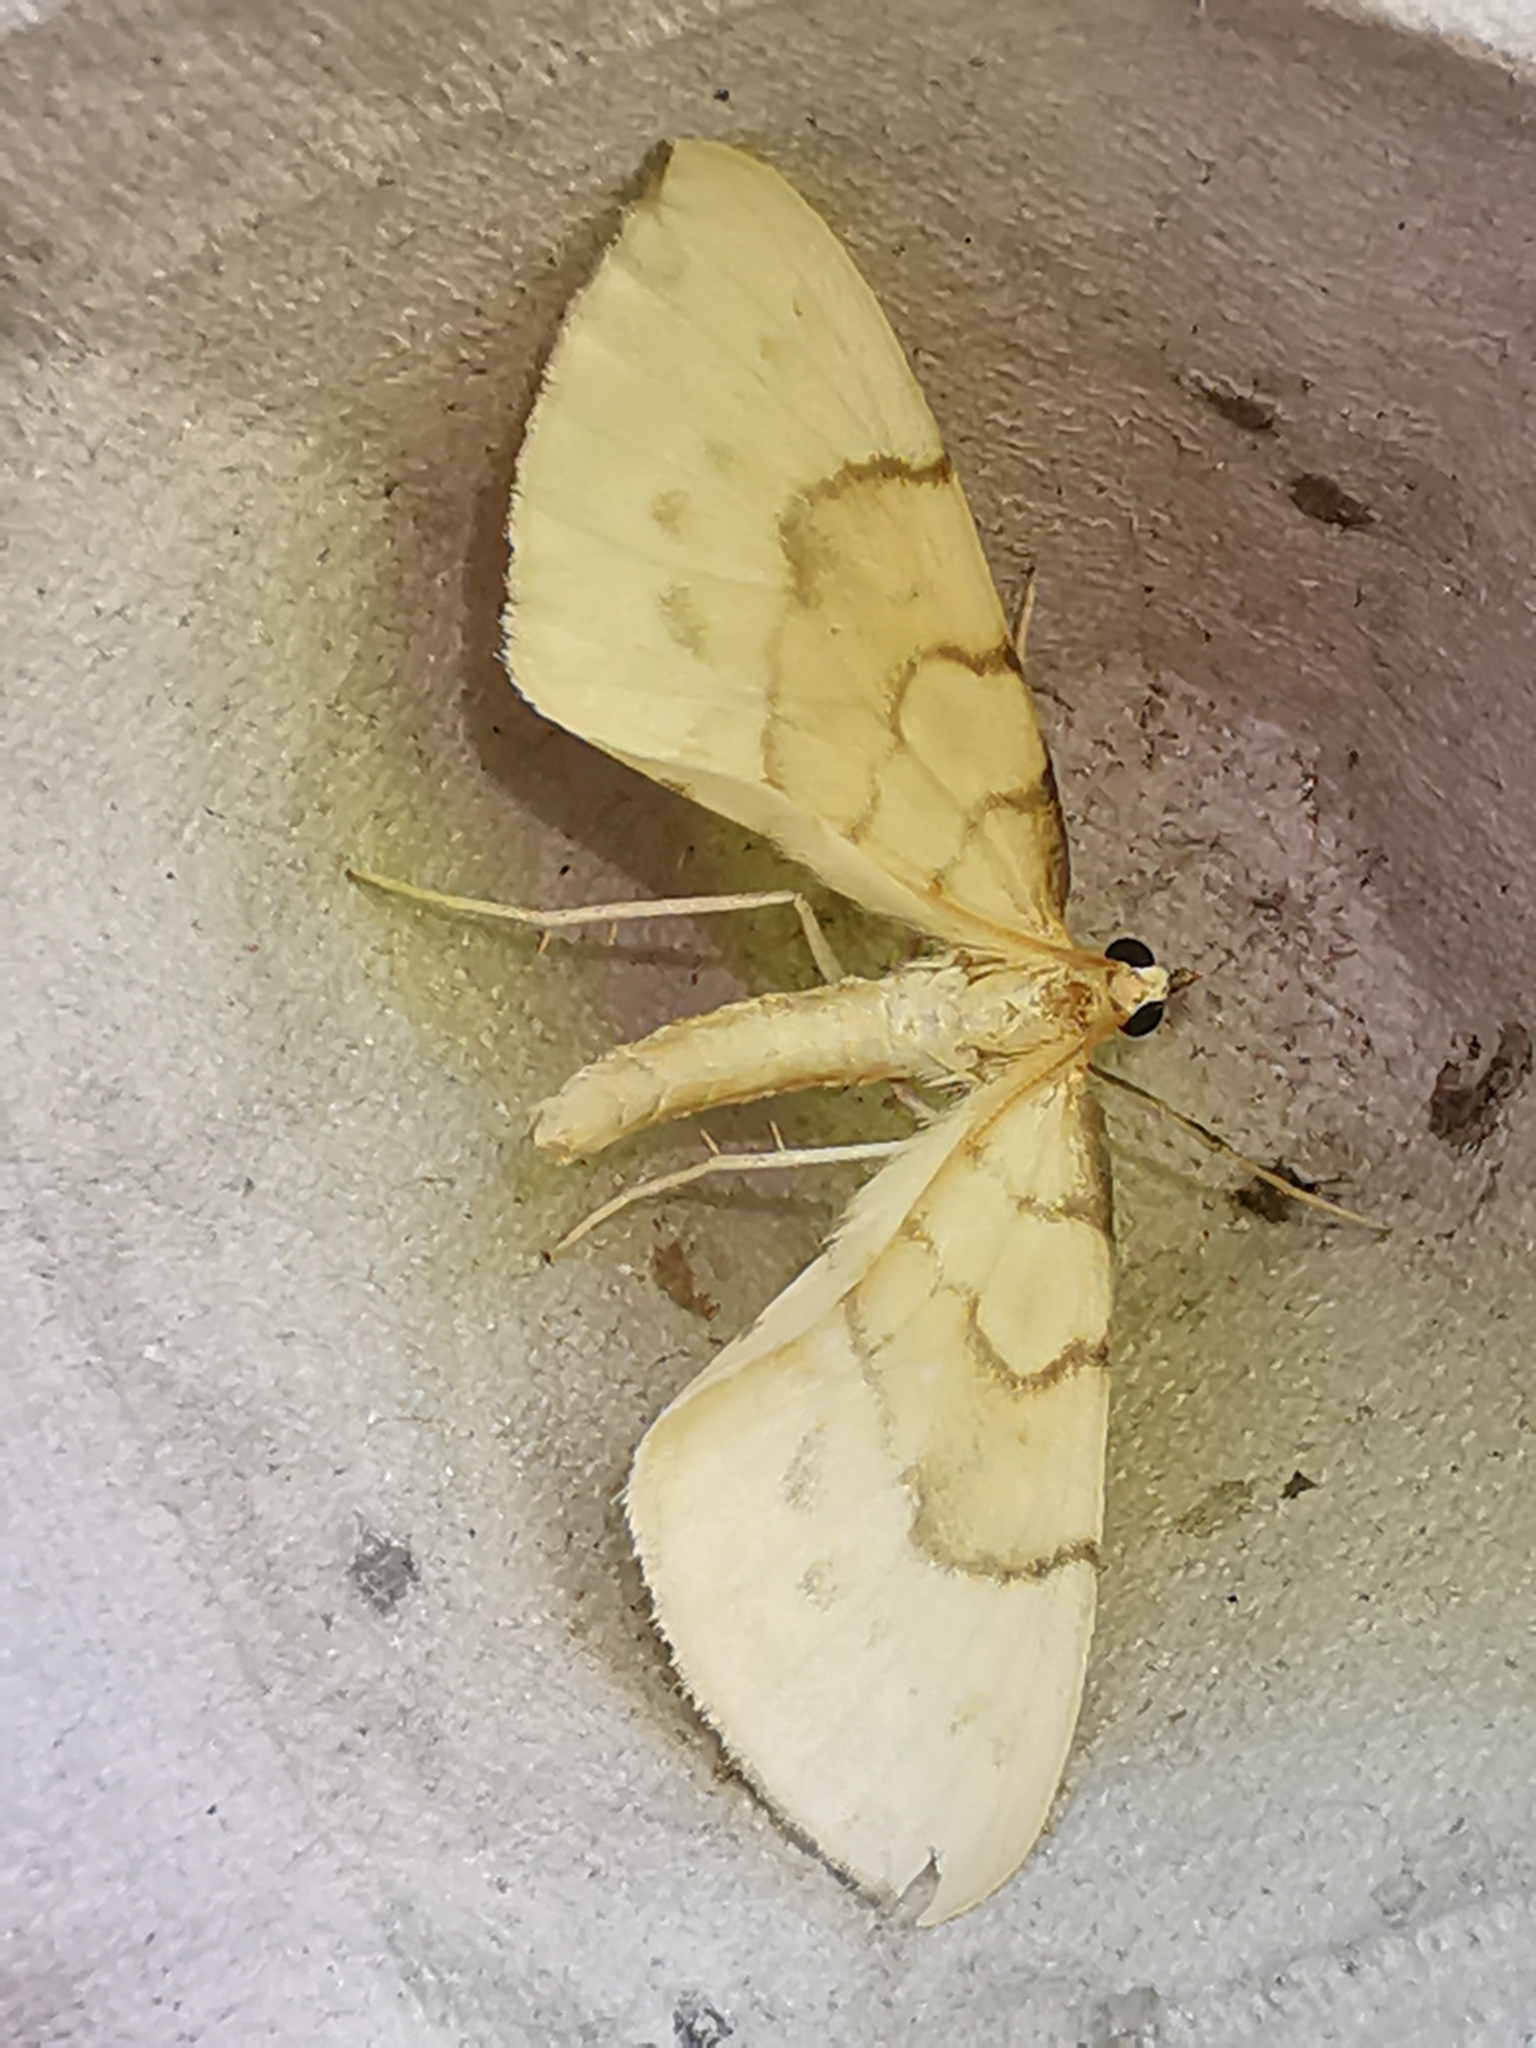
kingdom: Animalia
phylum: Arthropoda
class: Insecta
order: Lepidoptera
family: Geometridae
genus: Eulithis
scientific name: Eulithis pyraliata
